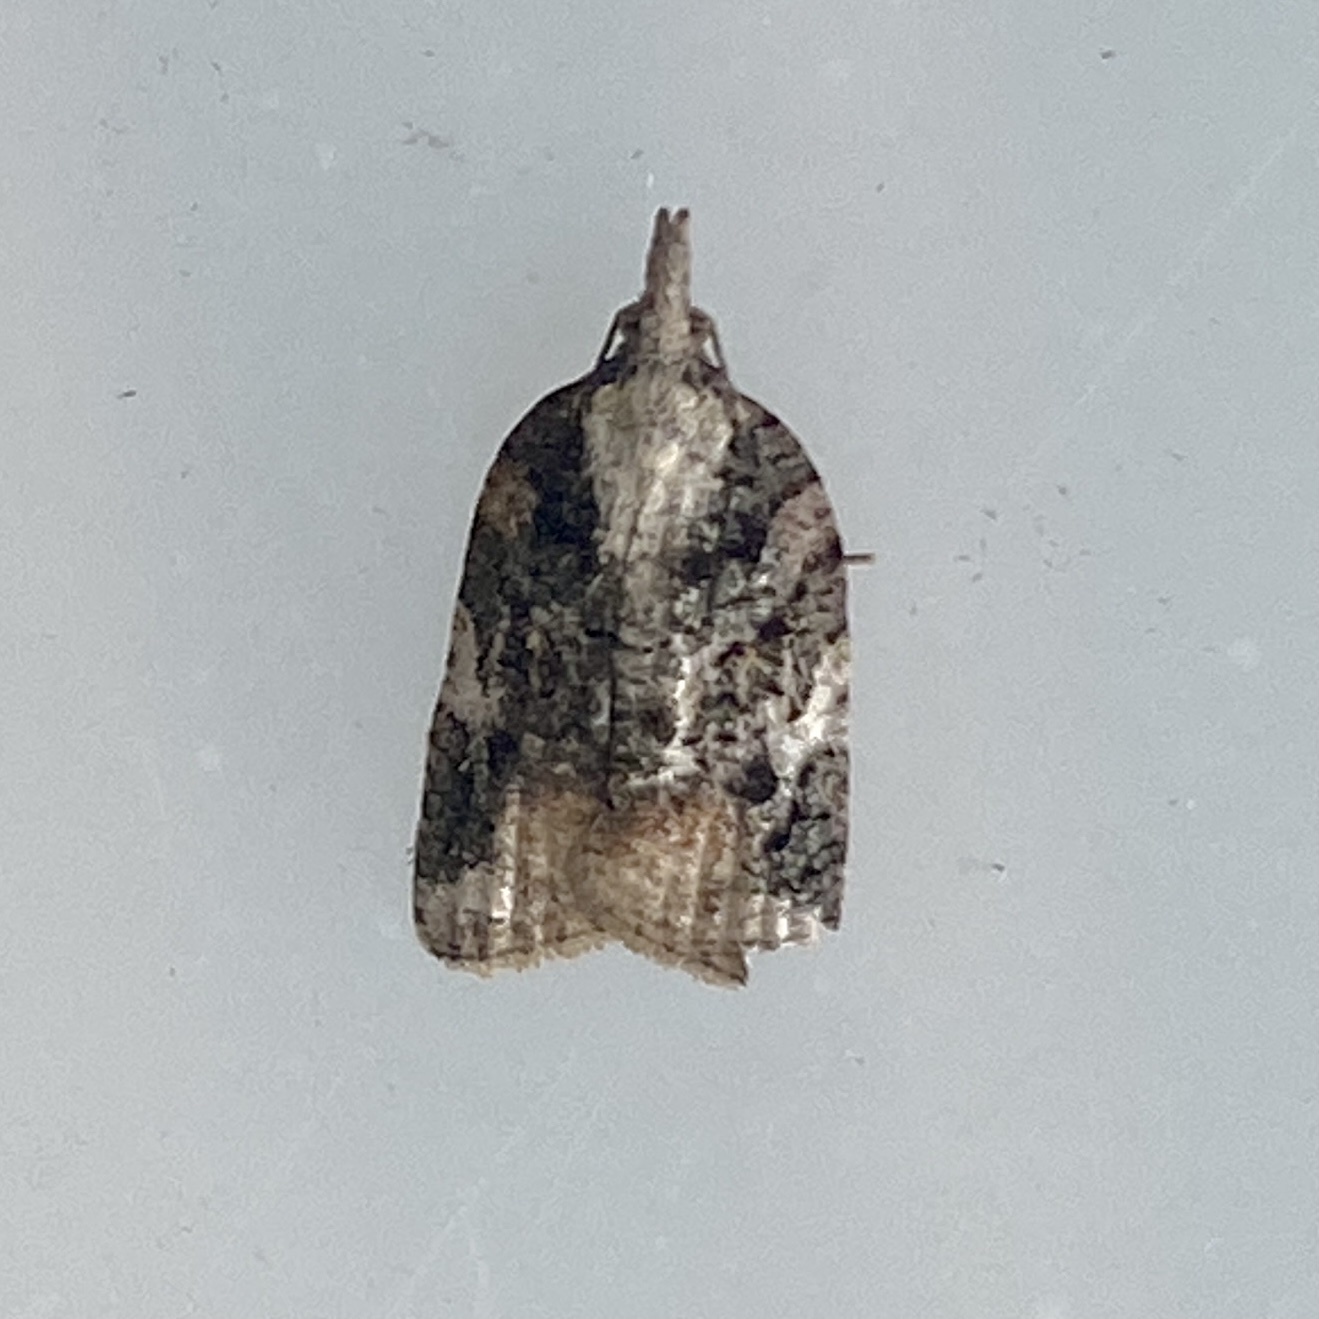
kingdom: Animalia
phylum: Arthropoda
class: Insecta
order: Lepidoptera
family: Tortricidae
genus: Platynota
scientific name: Platynota exasperatana
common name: Exasperating platynota moth
